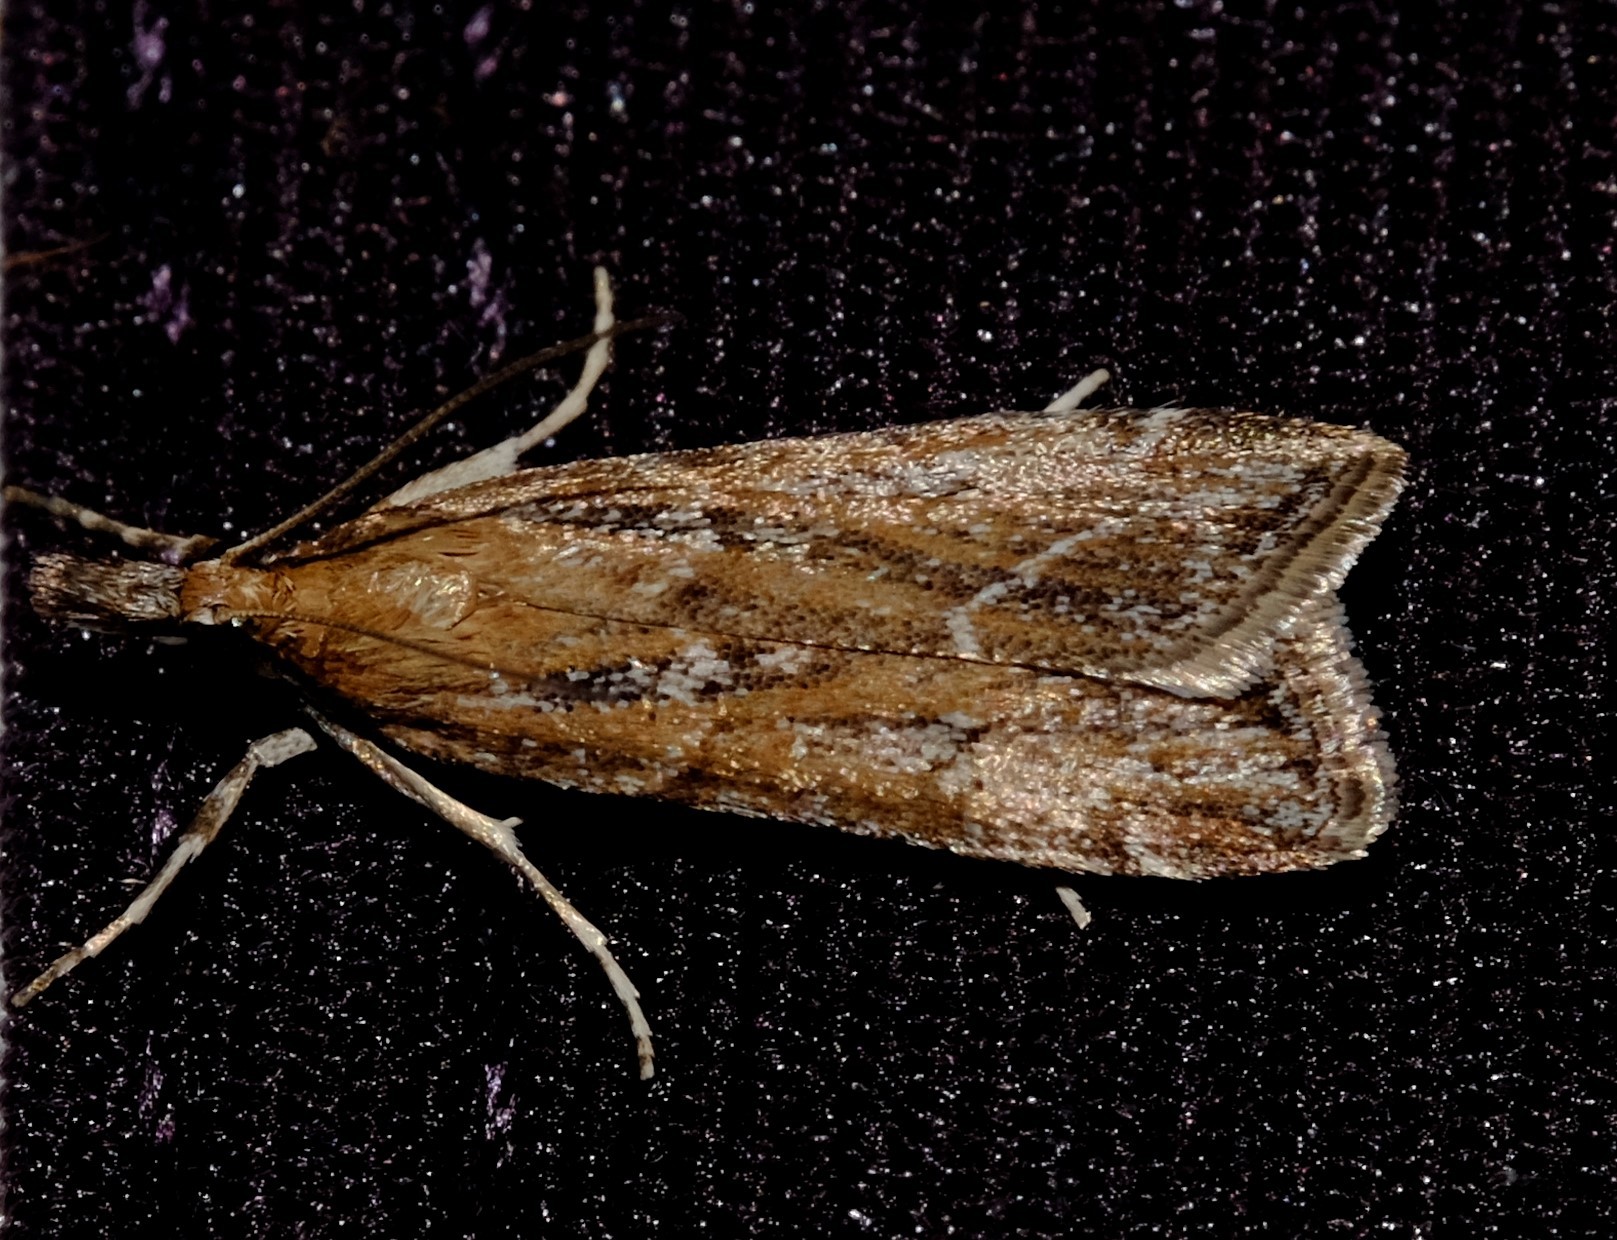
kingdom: Animalia
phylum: Arthropoda
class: Insecta
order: Lepidoptera
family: Crambidae
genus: Eudonia
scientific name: Eudonia cleodoralis
